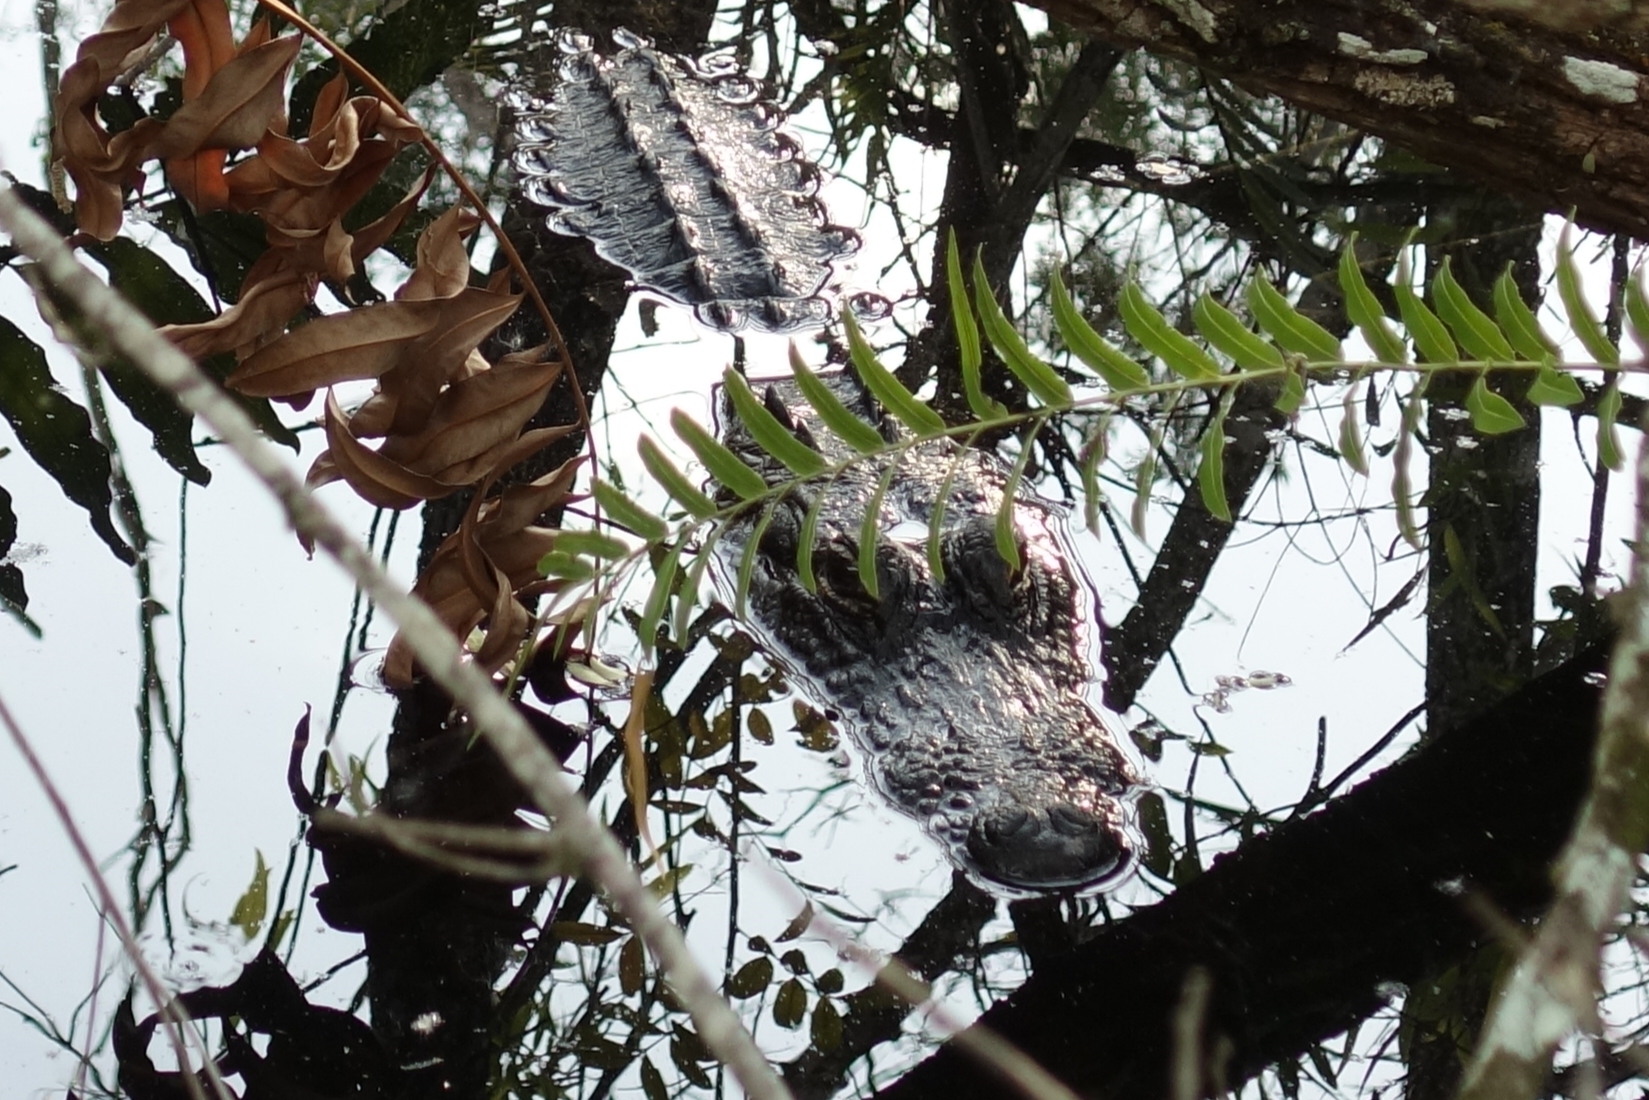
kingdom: Animalia
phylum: Chordata
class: Crocodylia
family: Alligatoridae
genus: Alligator
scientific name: Alligator mississippiensis
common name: American alligator
